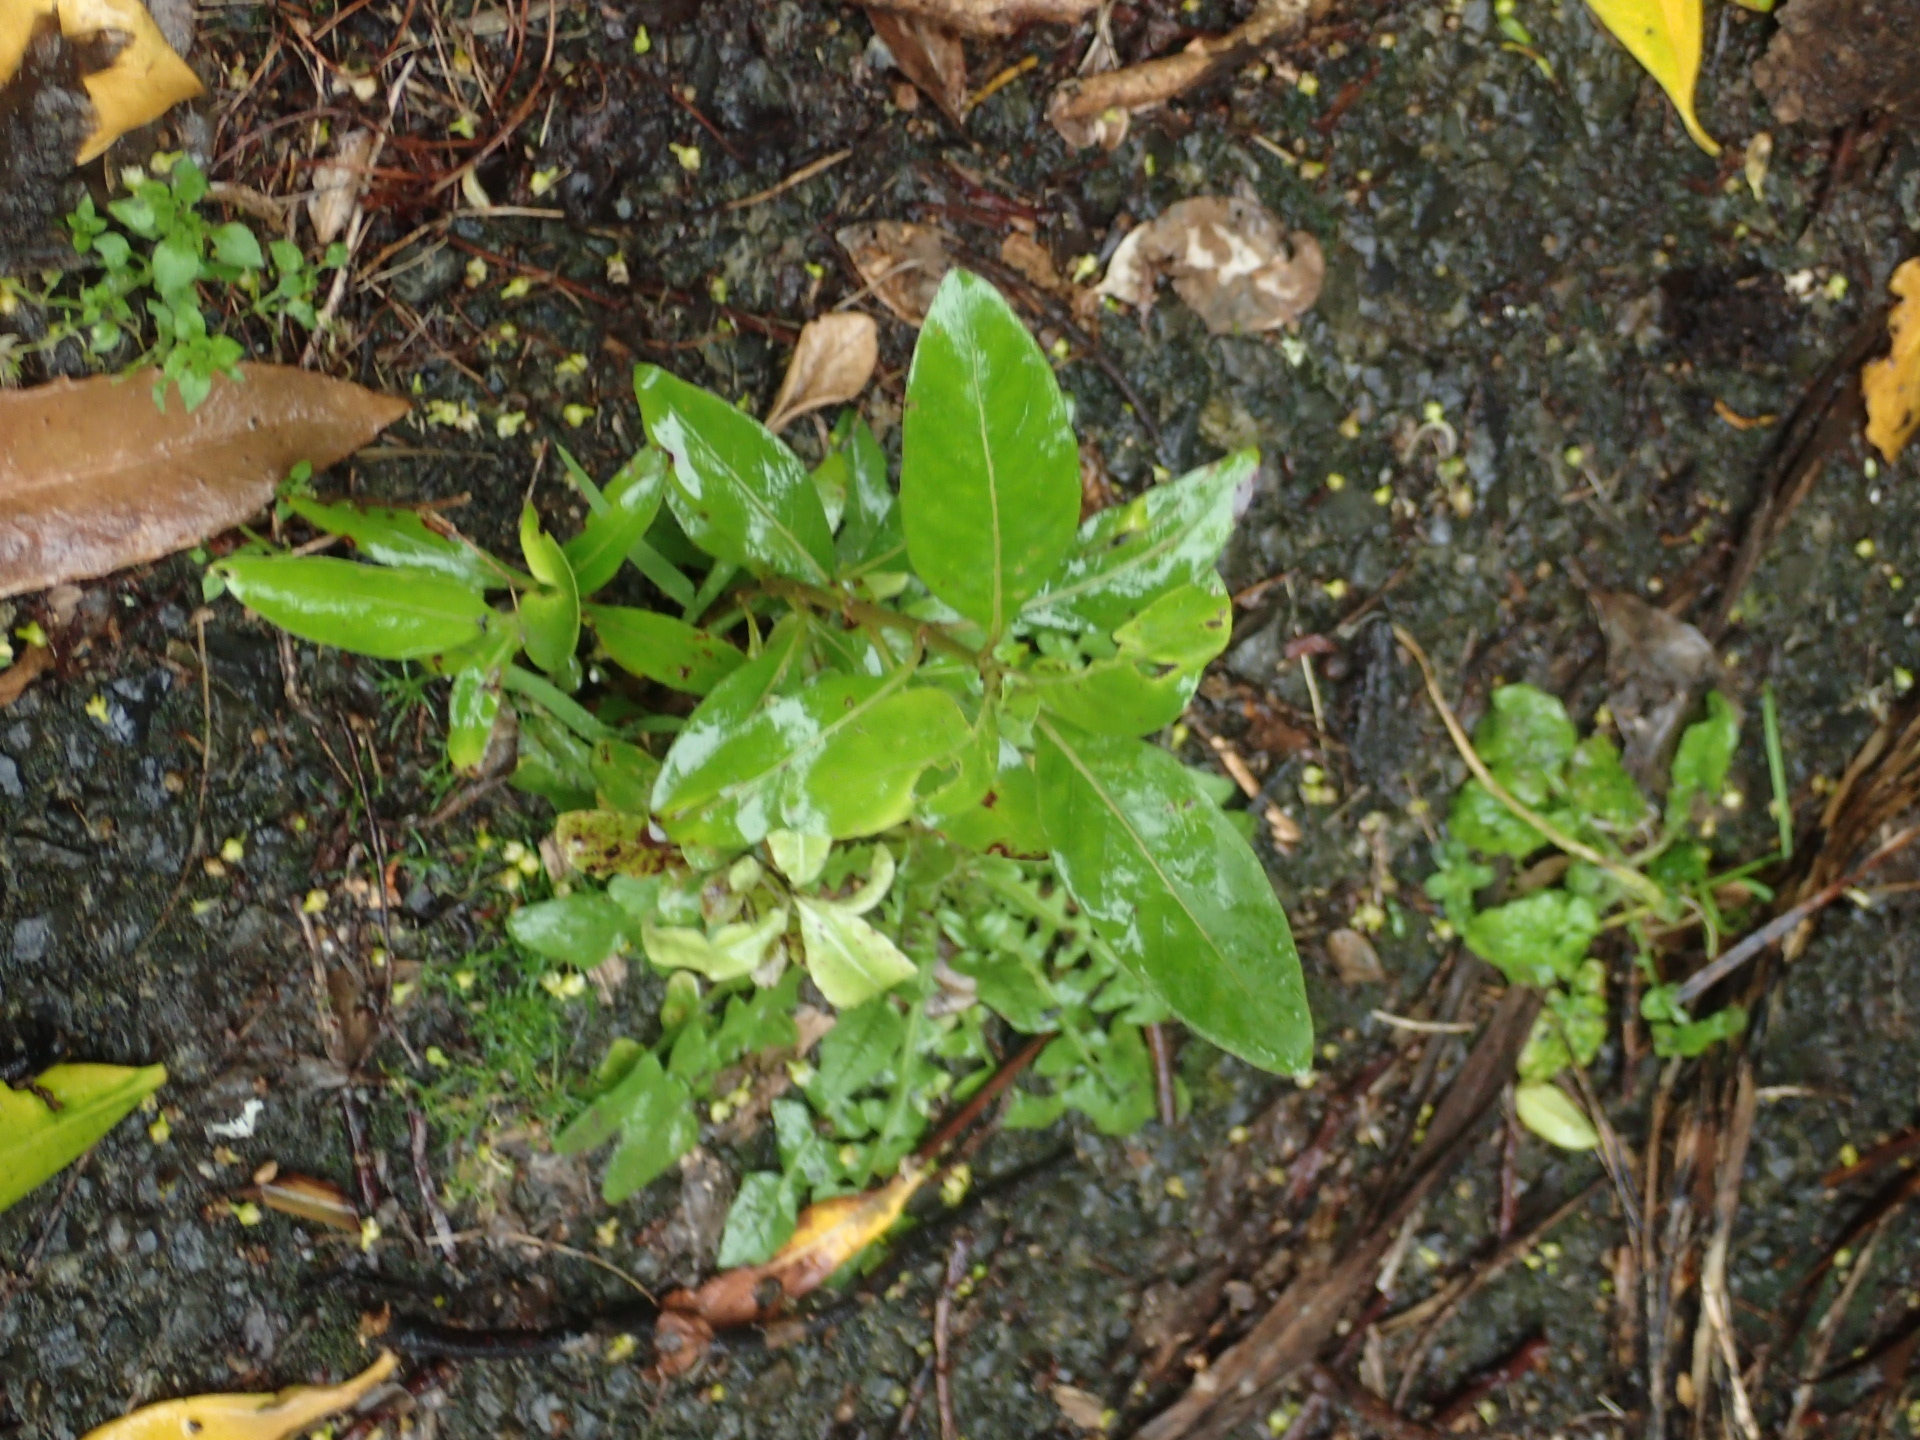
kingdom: Plantae
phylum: Tracheophyta
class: Magnoliopsida
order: Gentianales
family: Rubiaceae
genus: Coprosma
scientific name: Coprosma robusta
